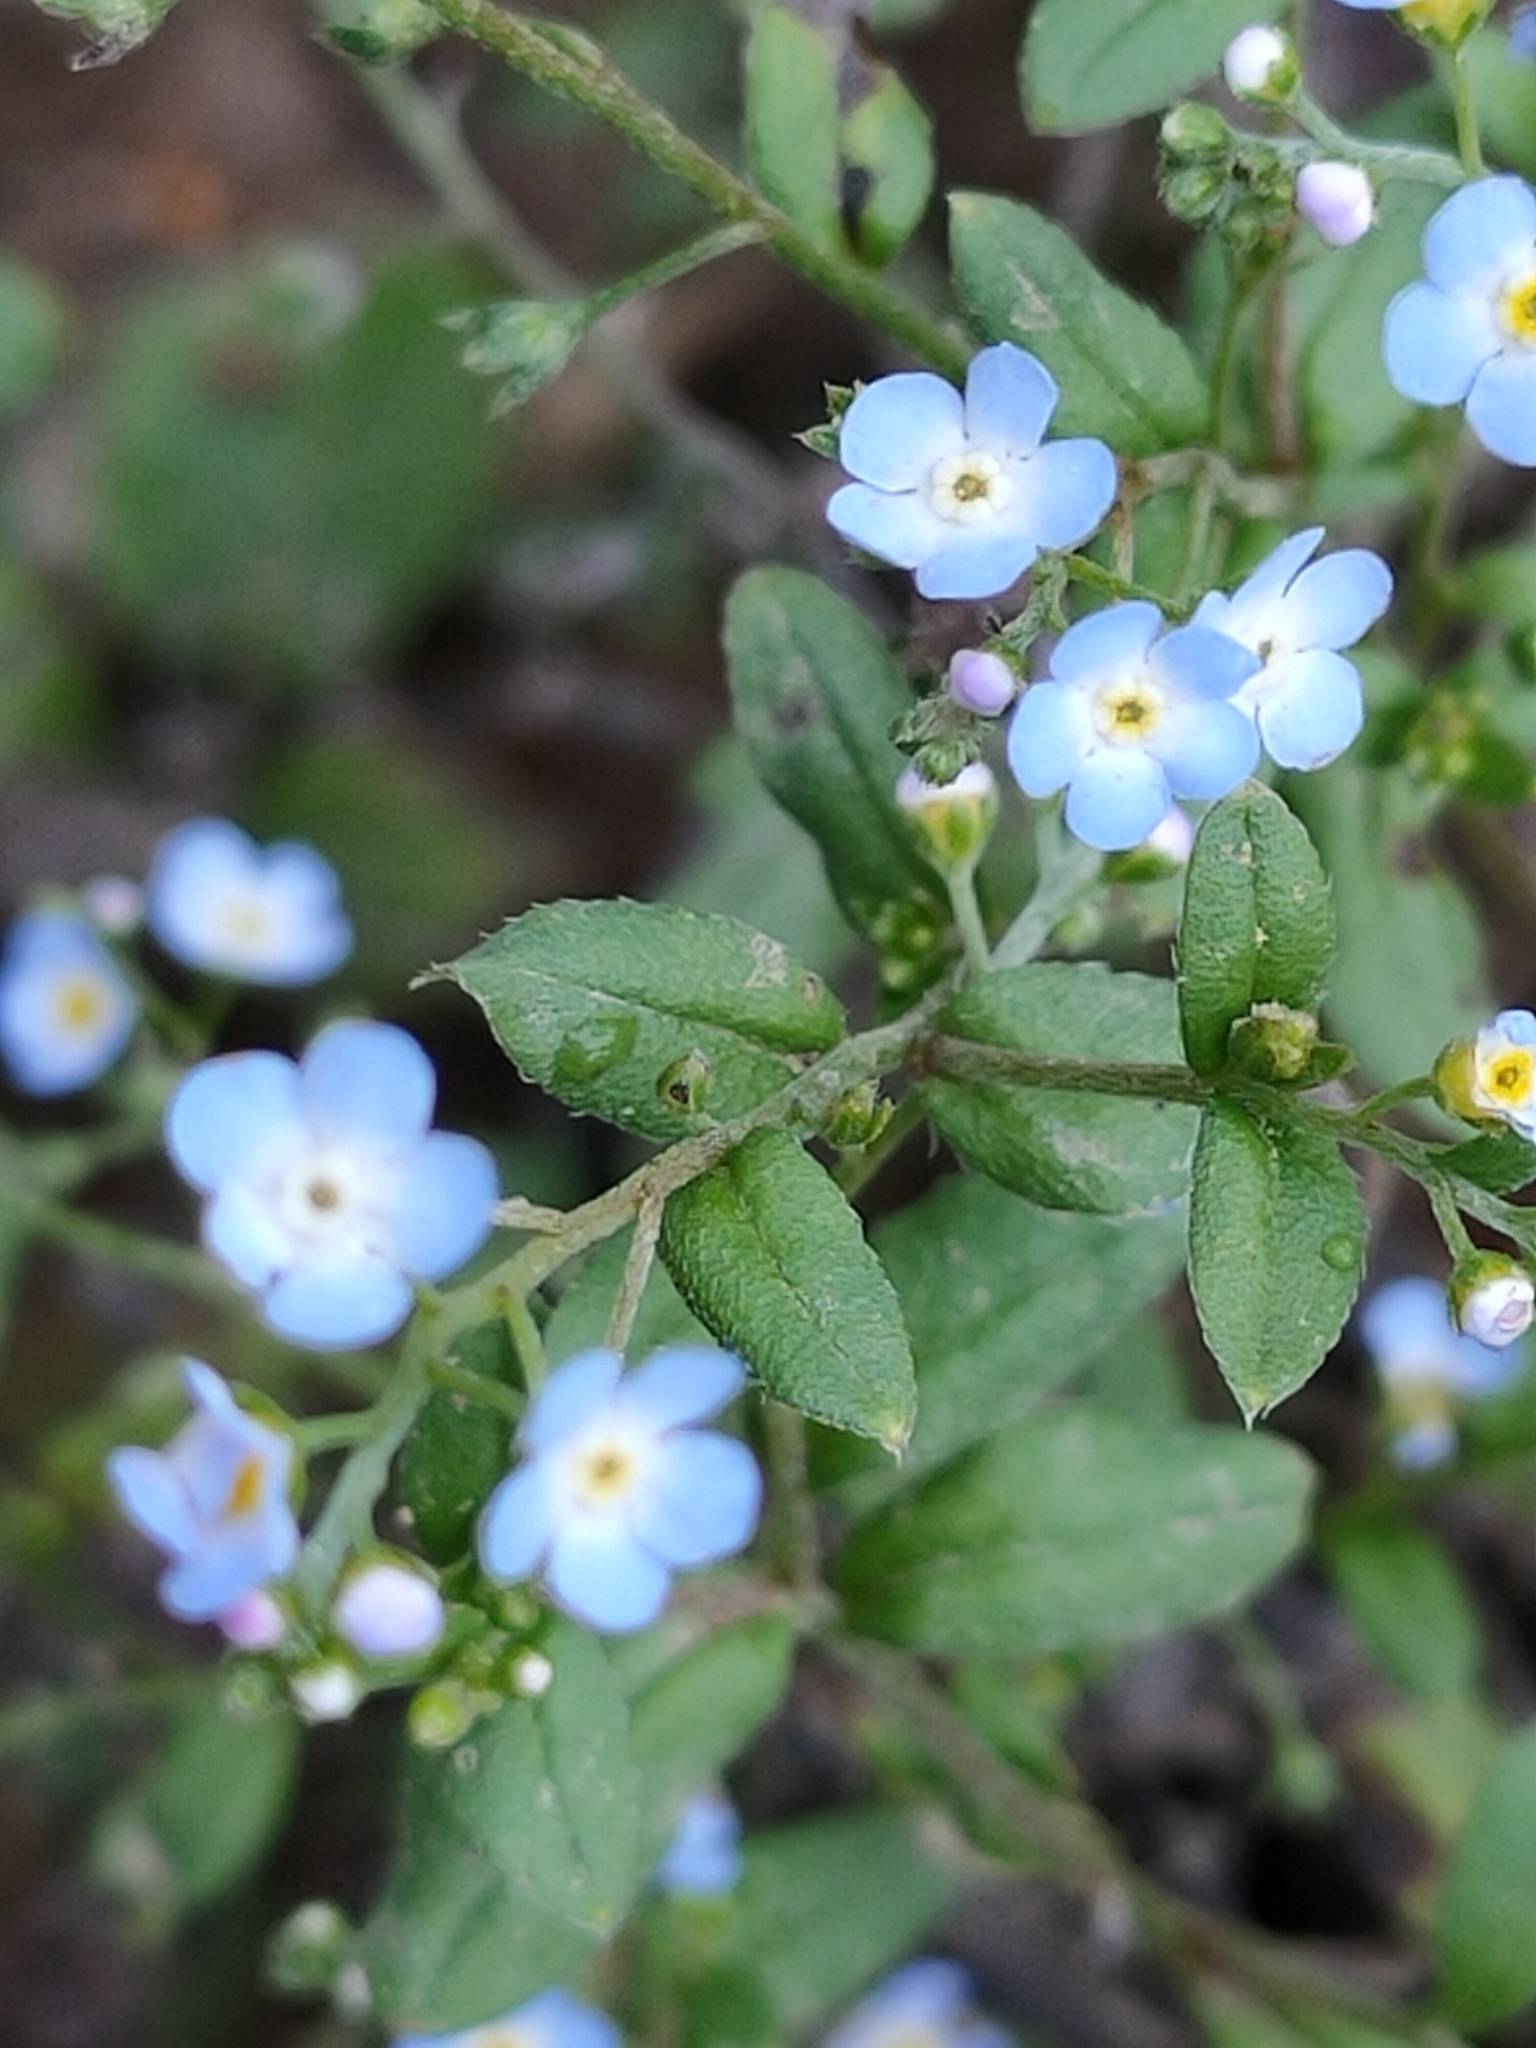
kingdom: Plantae
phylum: Tracheophyta
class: Magnoliopsida
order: Boraginales
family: Boraginaceae
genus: Trigonotis
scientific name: Trigonotis peduncularis
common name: Cucumber herb
